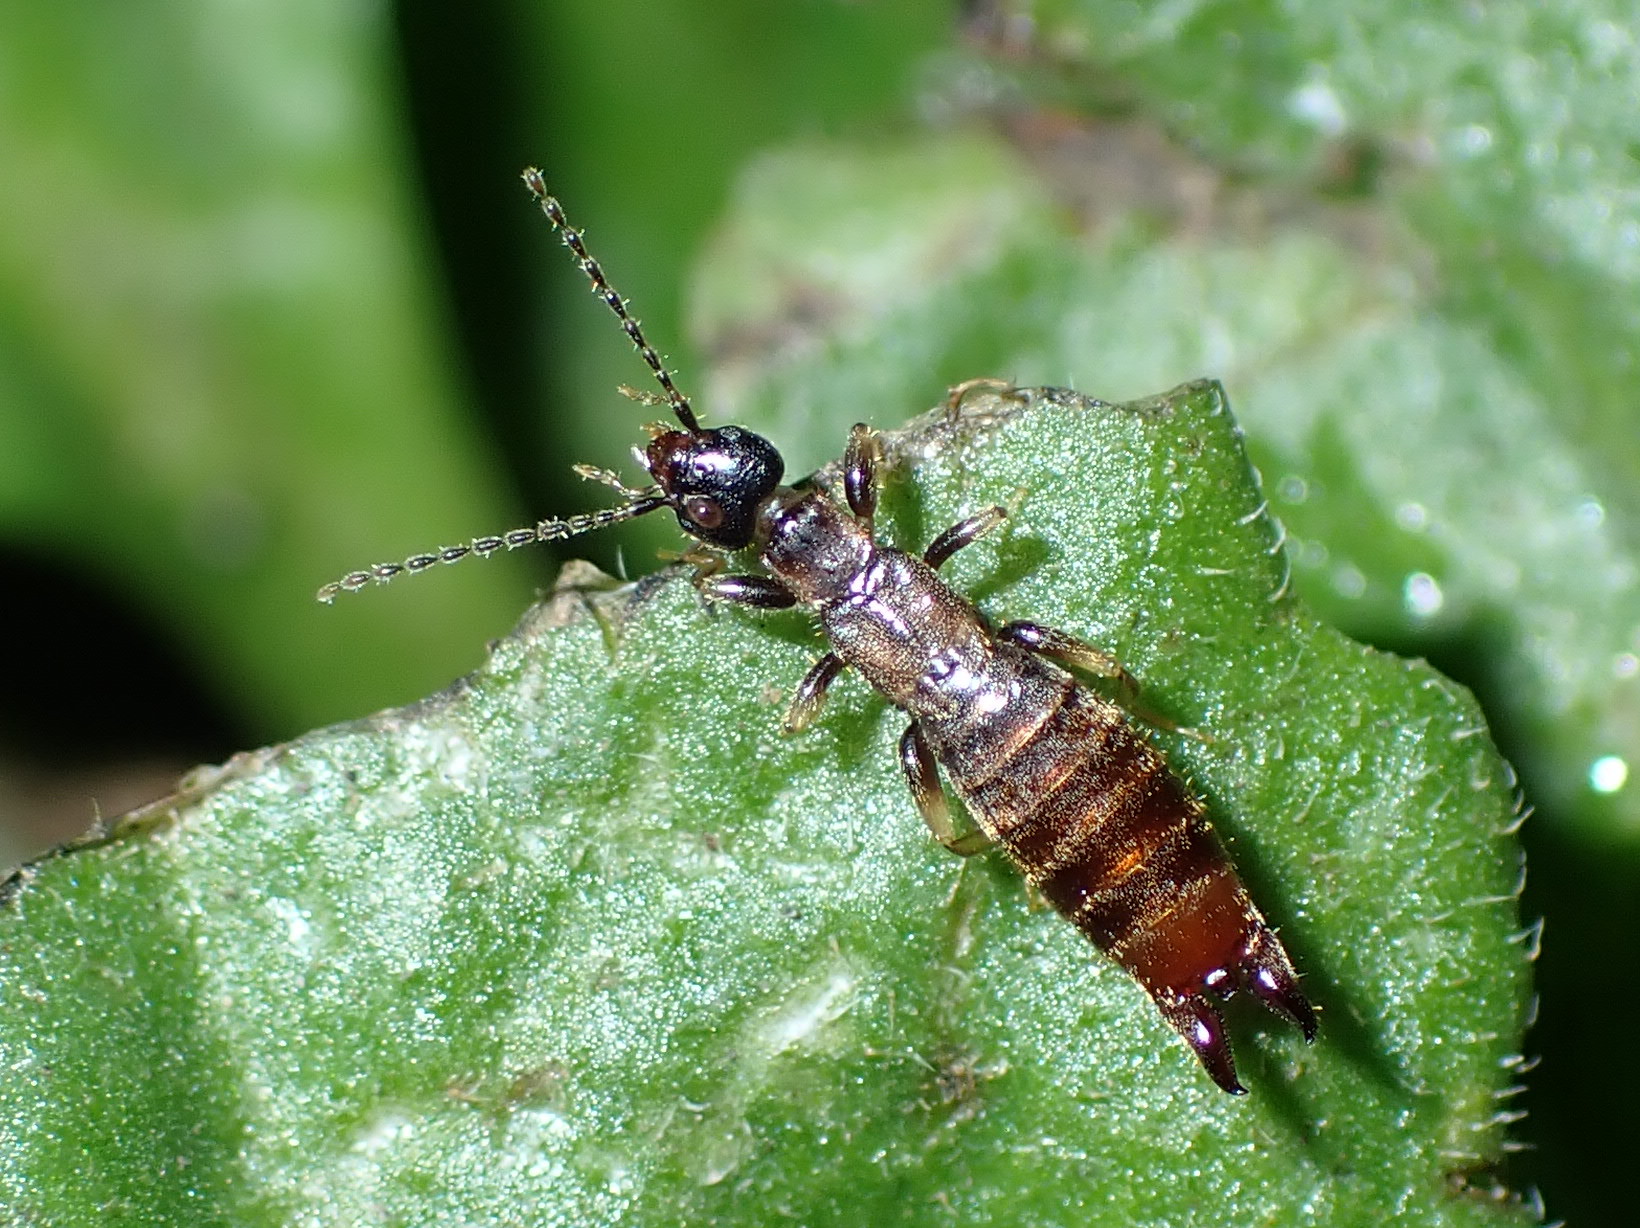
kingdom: Animalia
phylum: Arthropoda
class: Insecta
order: Dermaptera
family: Spongiphoridae
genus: Spirolabia
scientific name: Spirolabia kermadecensis
